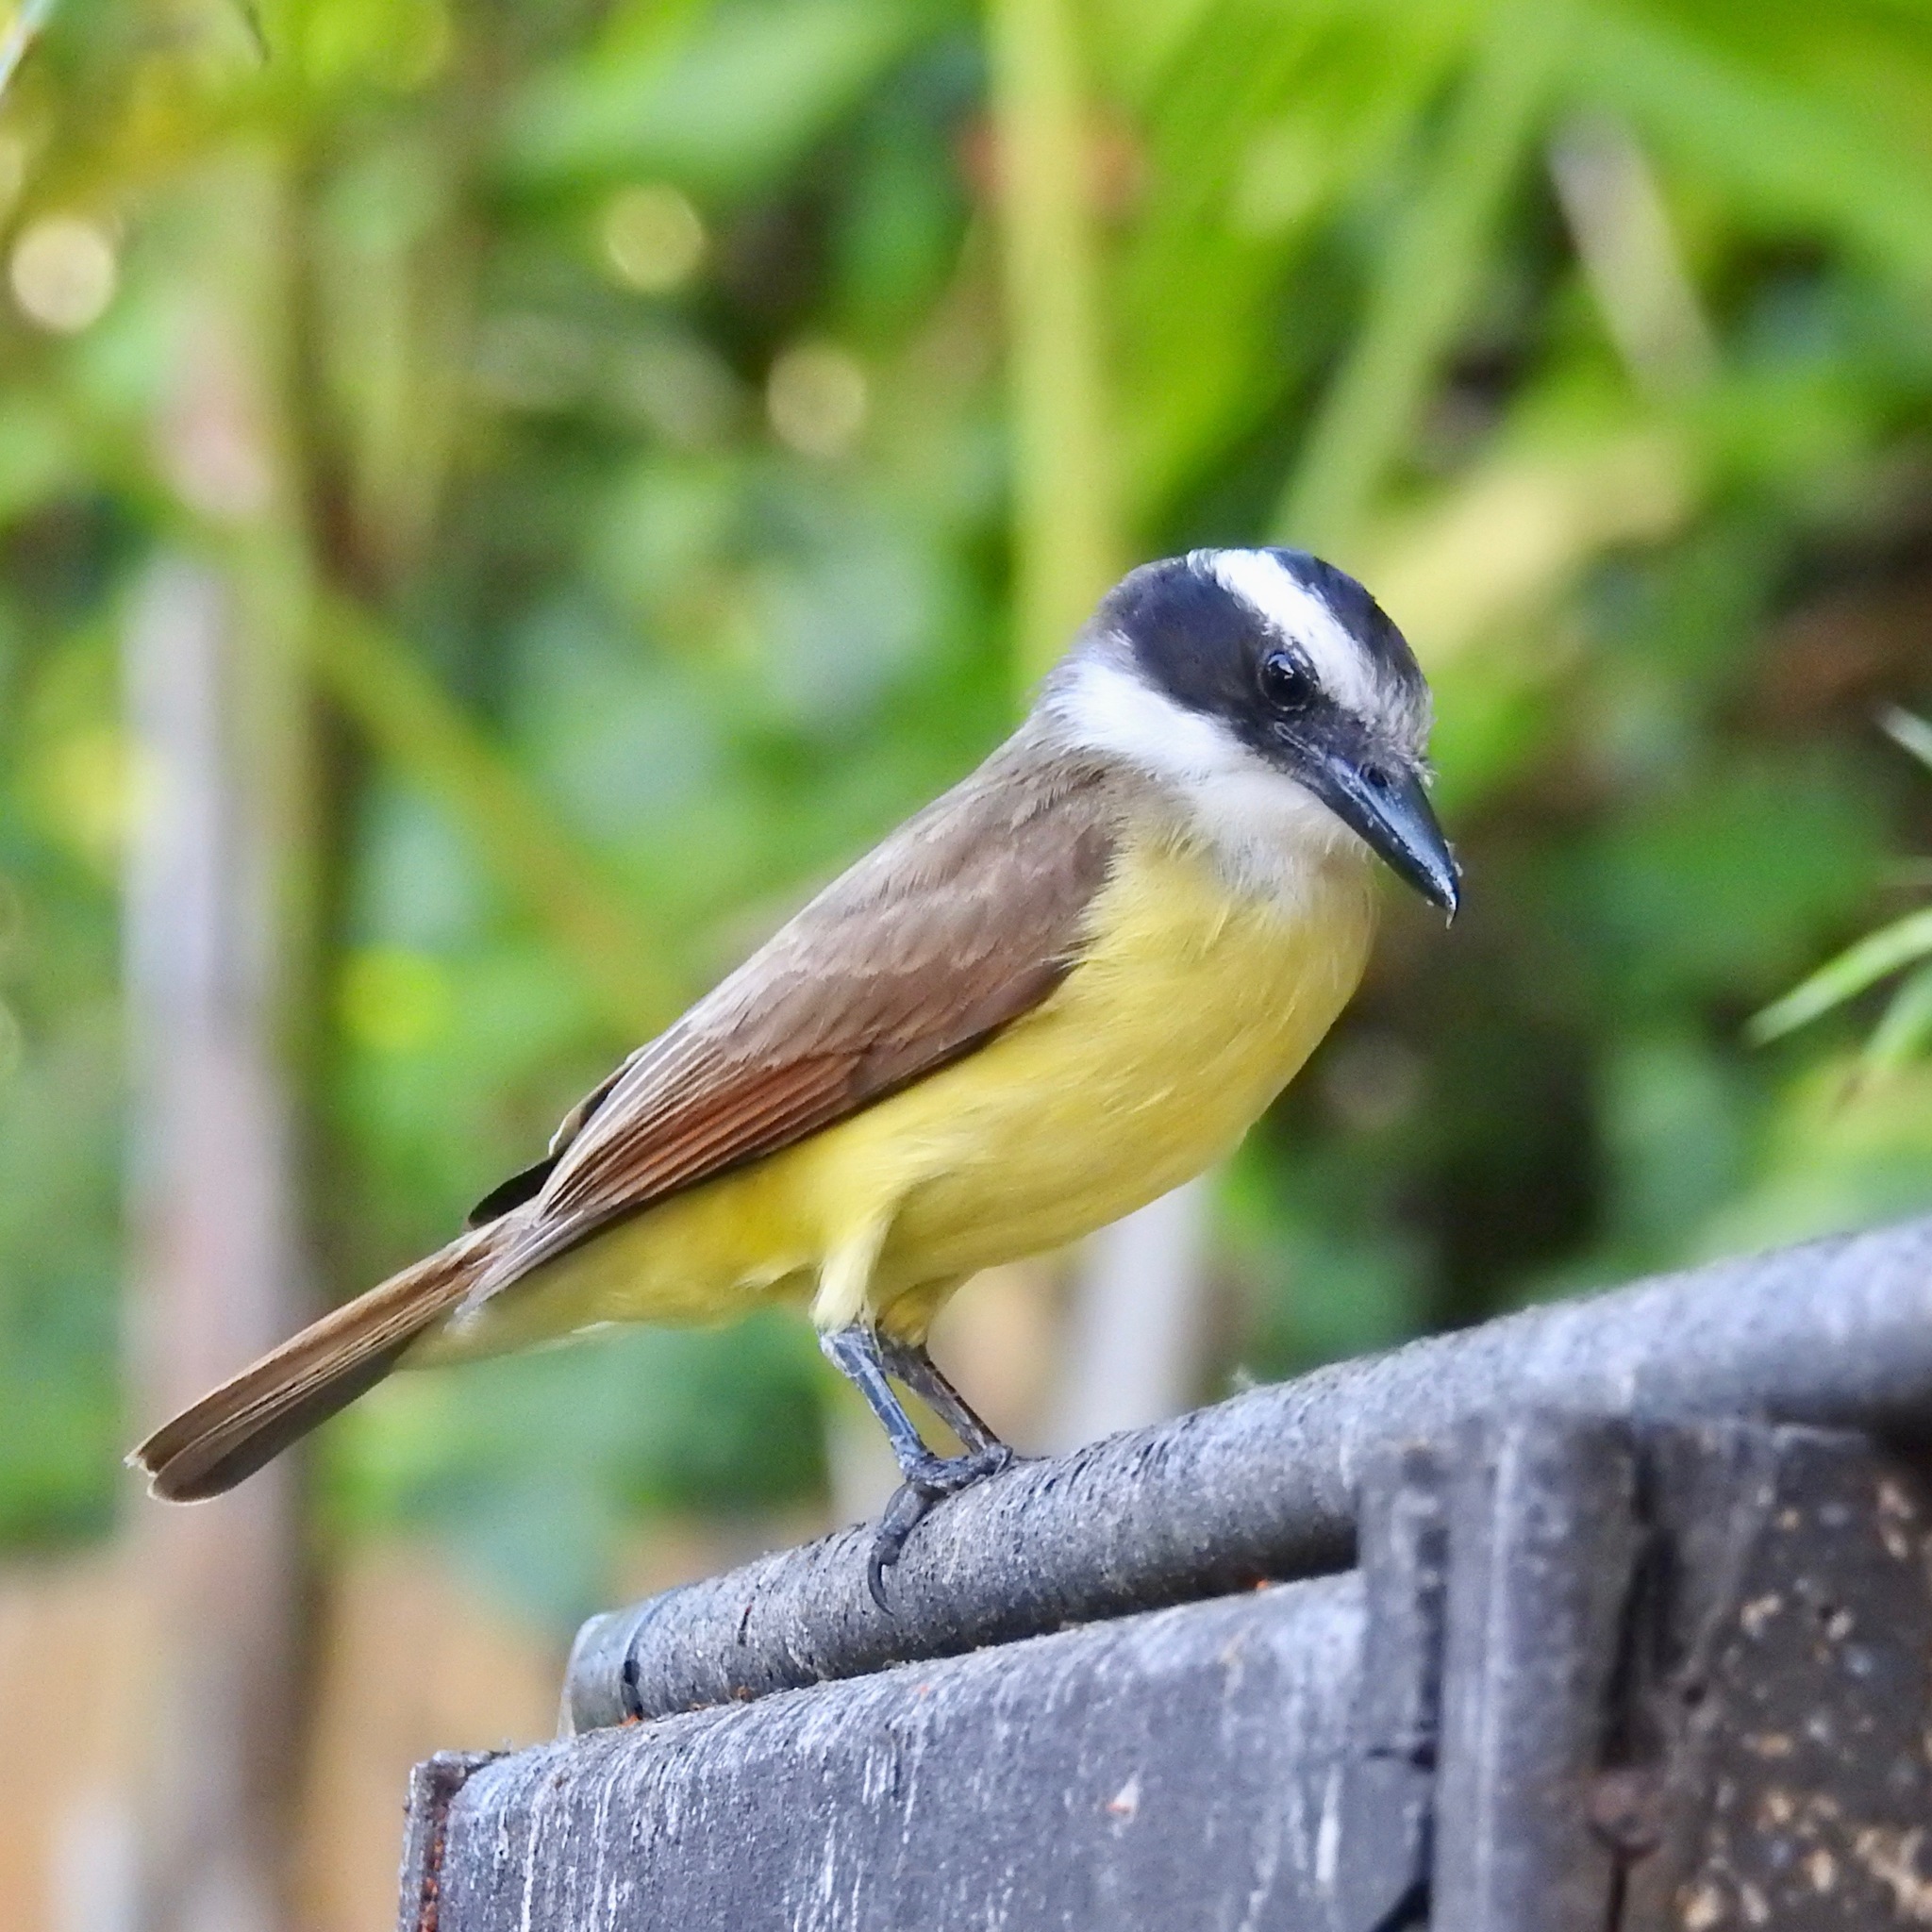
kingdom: Animalia
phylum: Chordata
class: Aves
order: Passeriformes
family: Tyrannidae
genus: Pitangus
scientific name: Pitangus sulphuratus
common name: Great kiskadee
